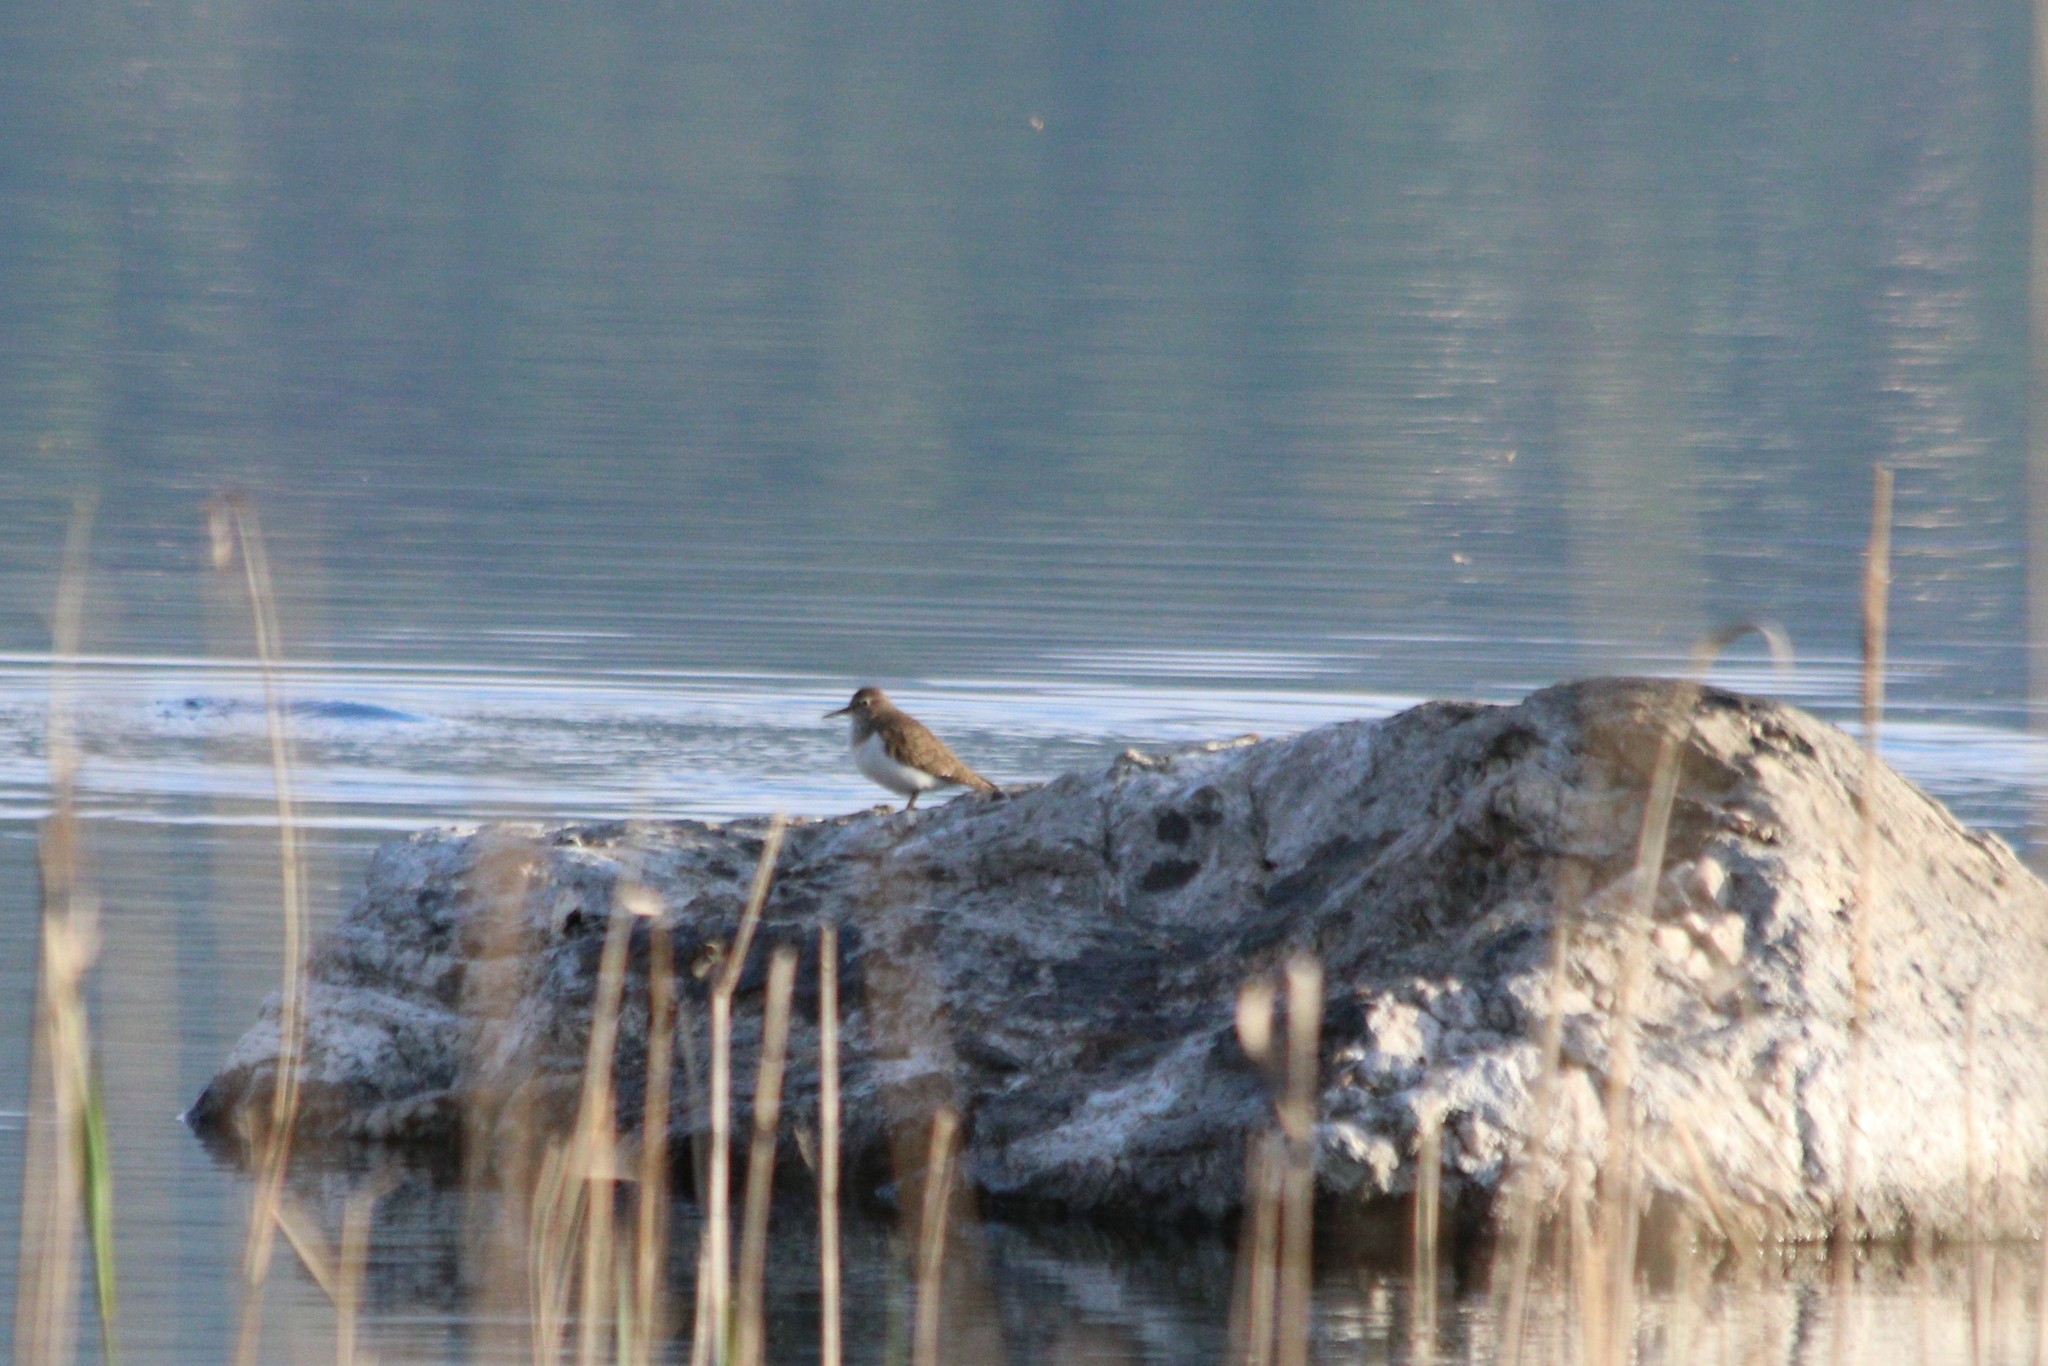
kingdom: Animalia
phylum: Chordata
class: Aves
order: Charadriiformes
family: Scolopacidae
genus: Actitis
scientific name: Actitis hypoleucos
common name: Common sandpiper
